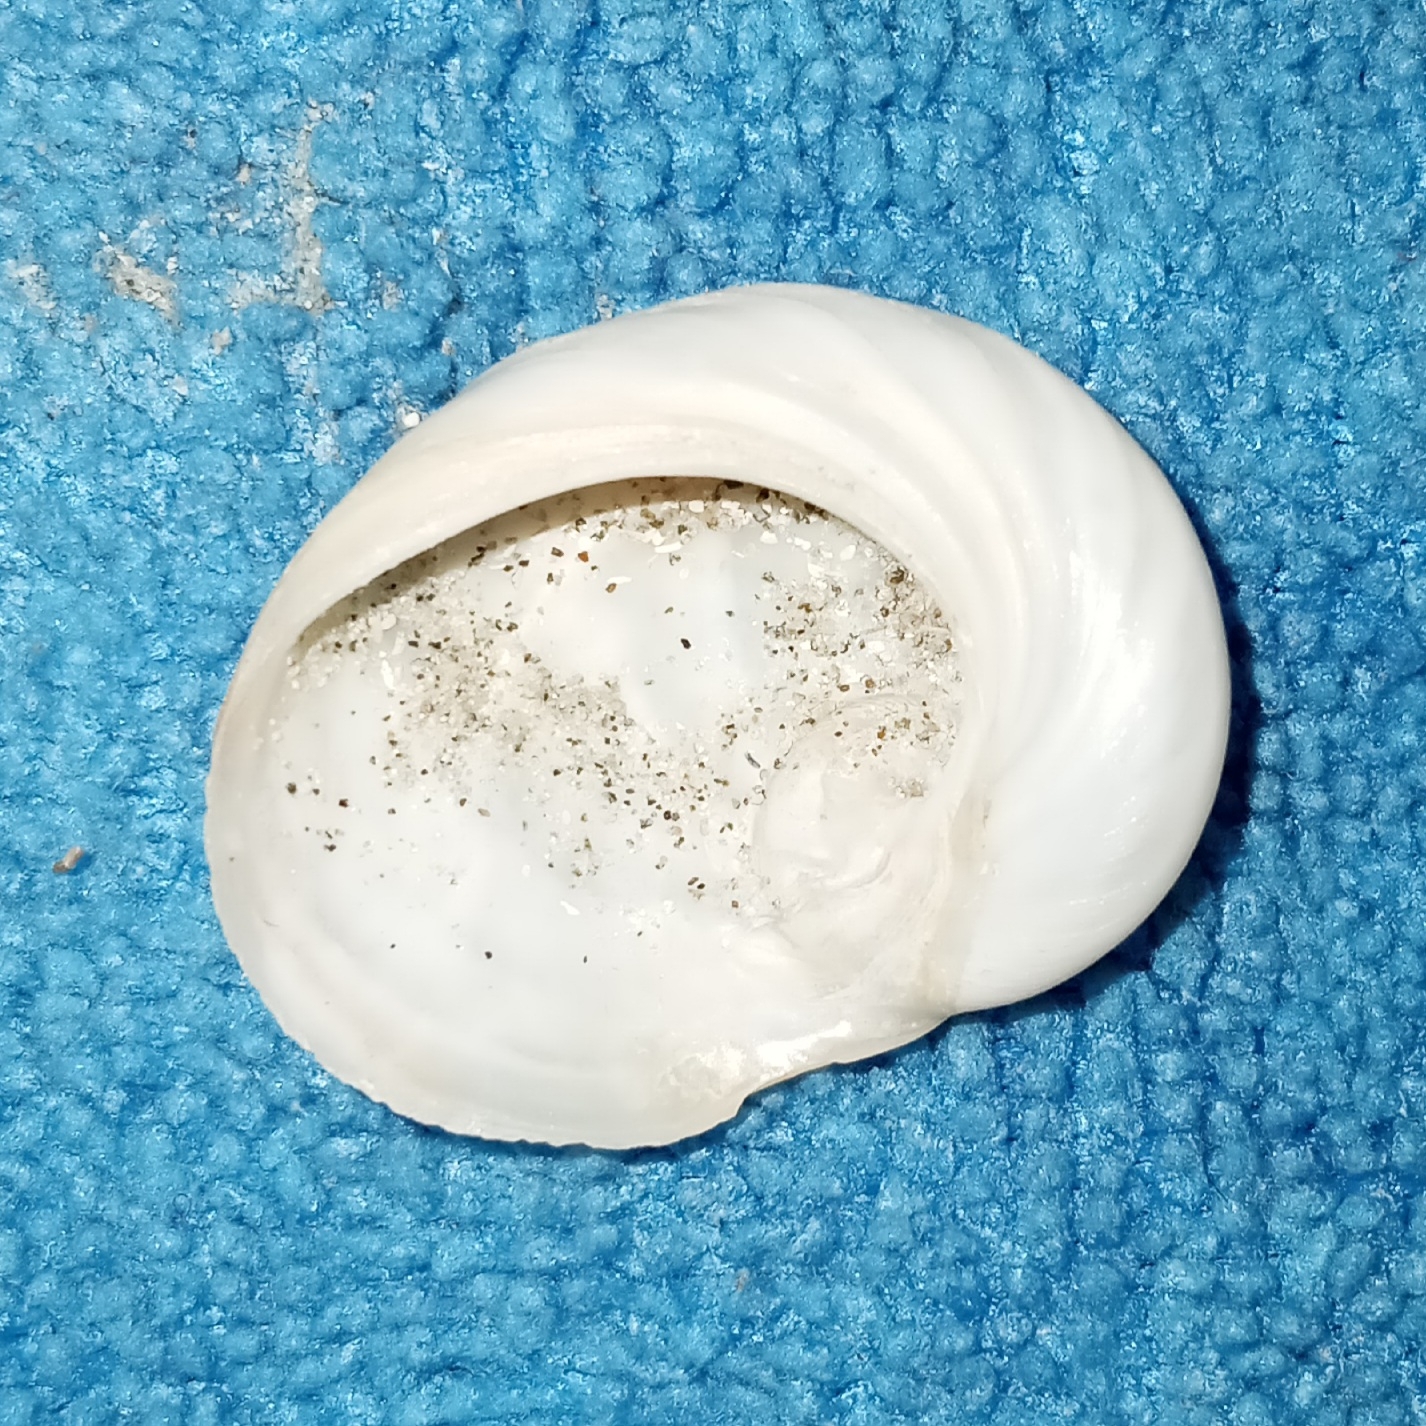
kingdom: Animalia
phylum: Mollusca
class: Gastropoda
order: Littorinimorpha
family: Naticidae
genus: Sinum
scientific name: Sinum perspectivum
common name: White baby ear
